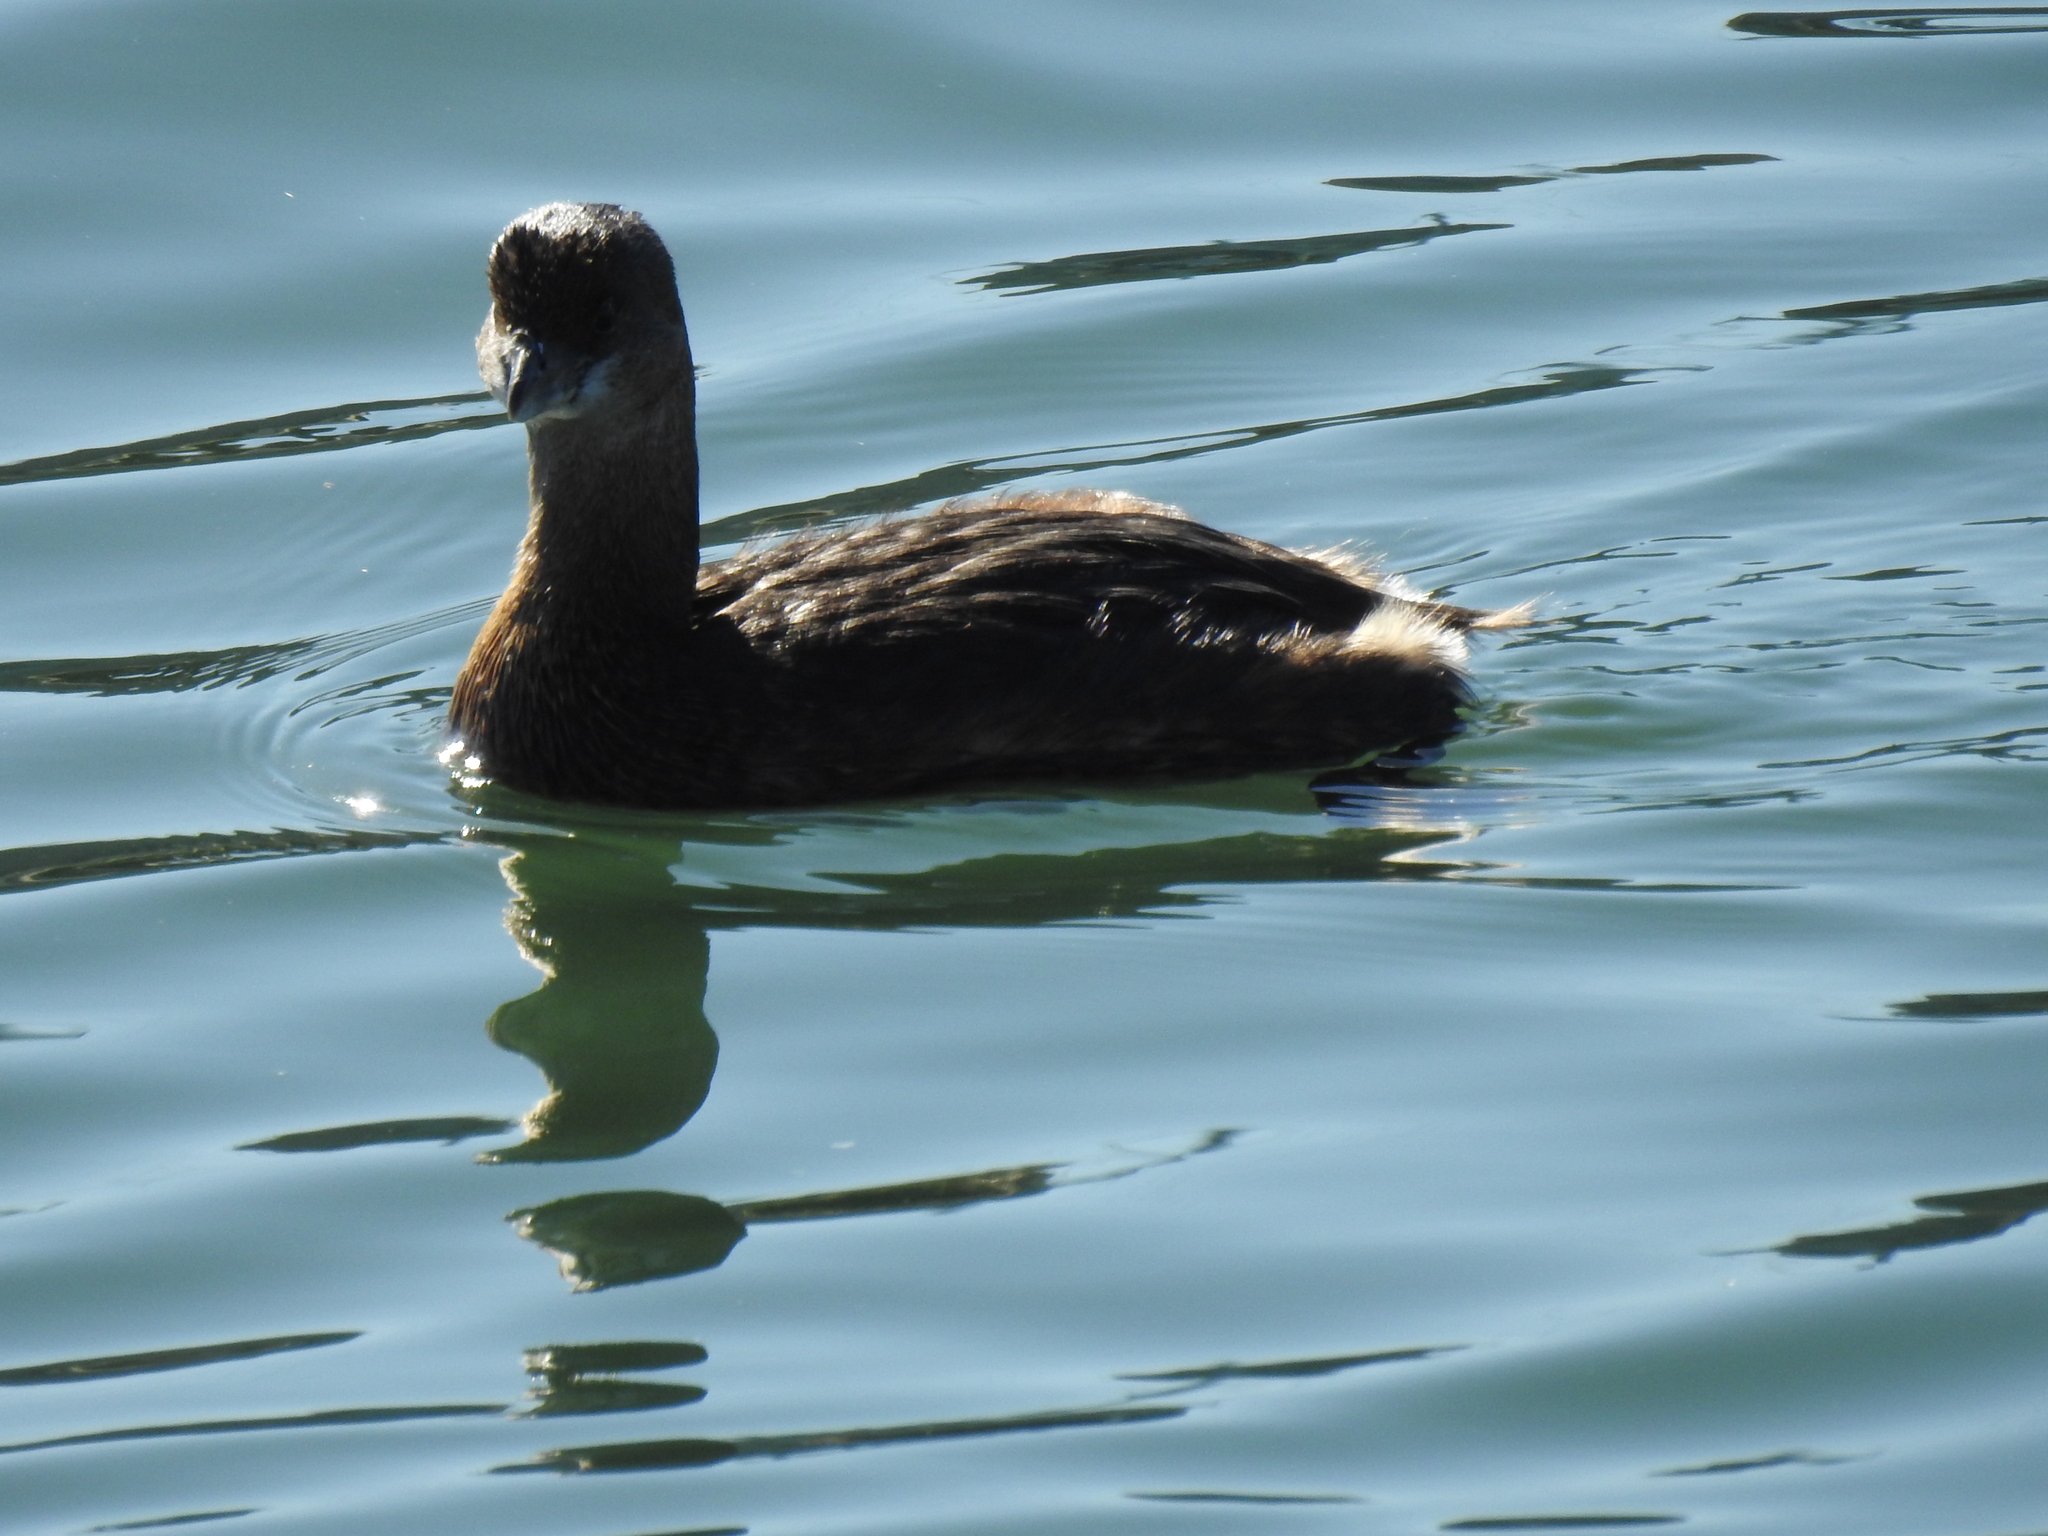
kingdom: Animalia
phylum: Chordata
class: Aves
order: Podicipediformes
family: Podicipedidae
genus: Podilymbus
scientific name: Podilymbus podiceps
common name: Pied-billed grebe
